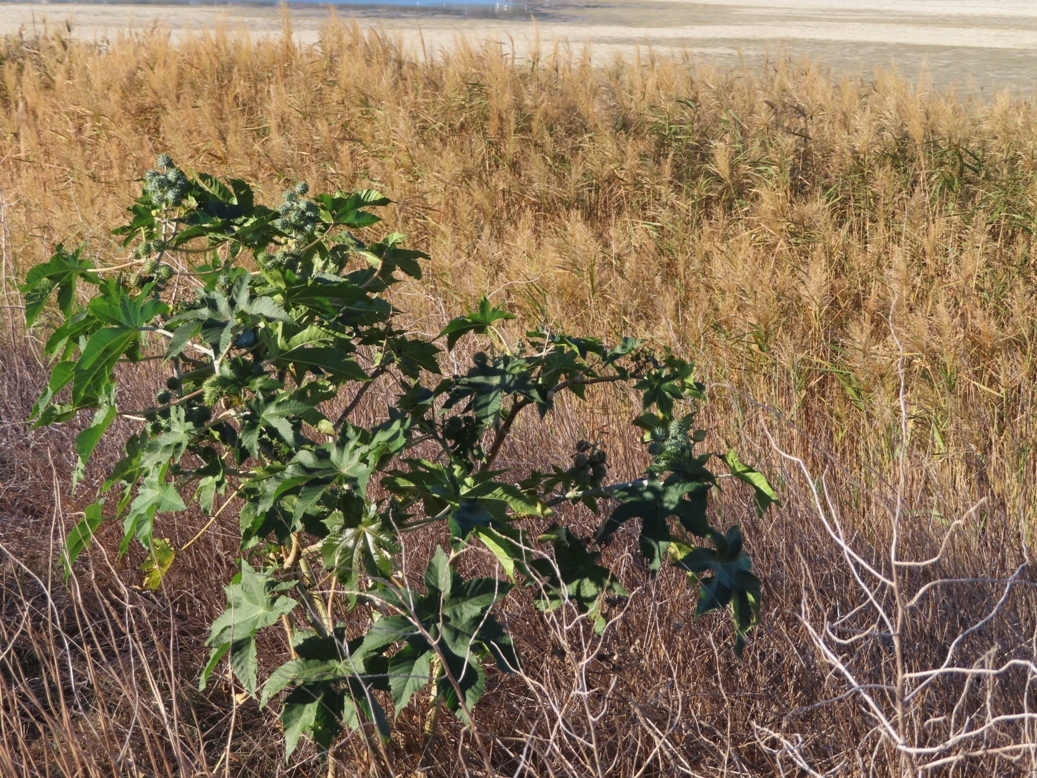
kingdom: Plantae
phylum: Tracheophyta
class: Magnoliopsida
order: Malpighiales
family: Euphorbiaceae
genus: Ricinus
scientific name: Ricinus communis
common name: Castor-oil-plant
